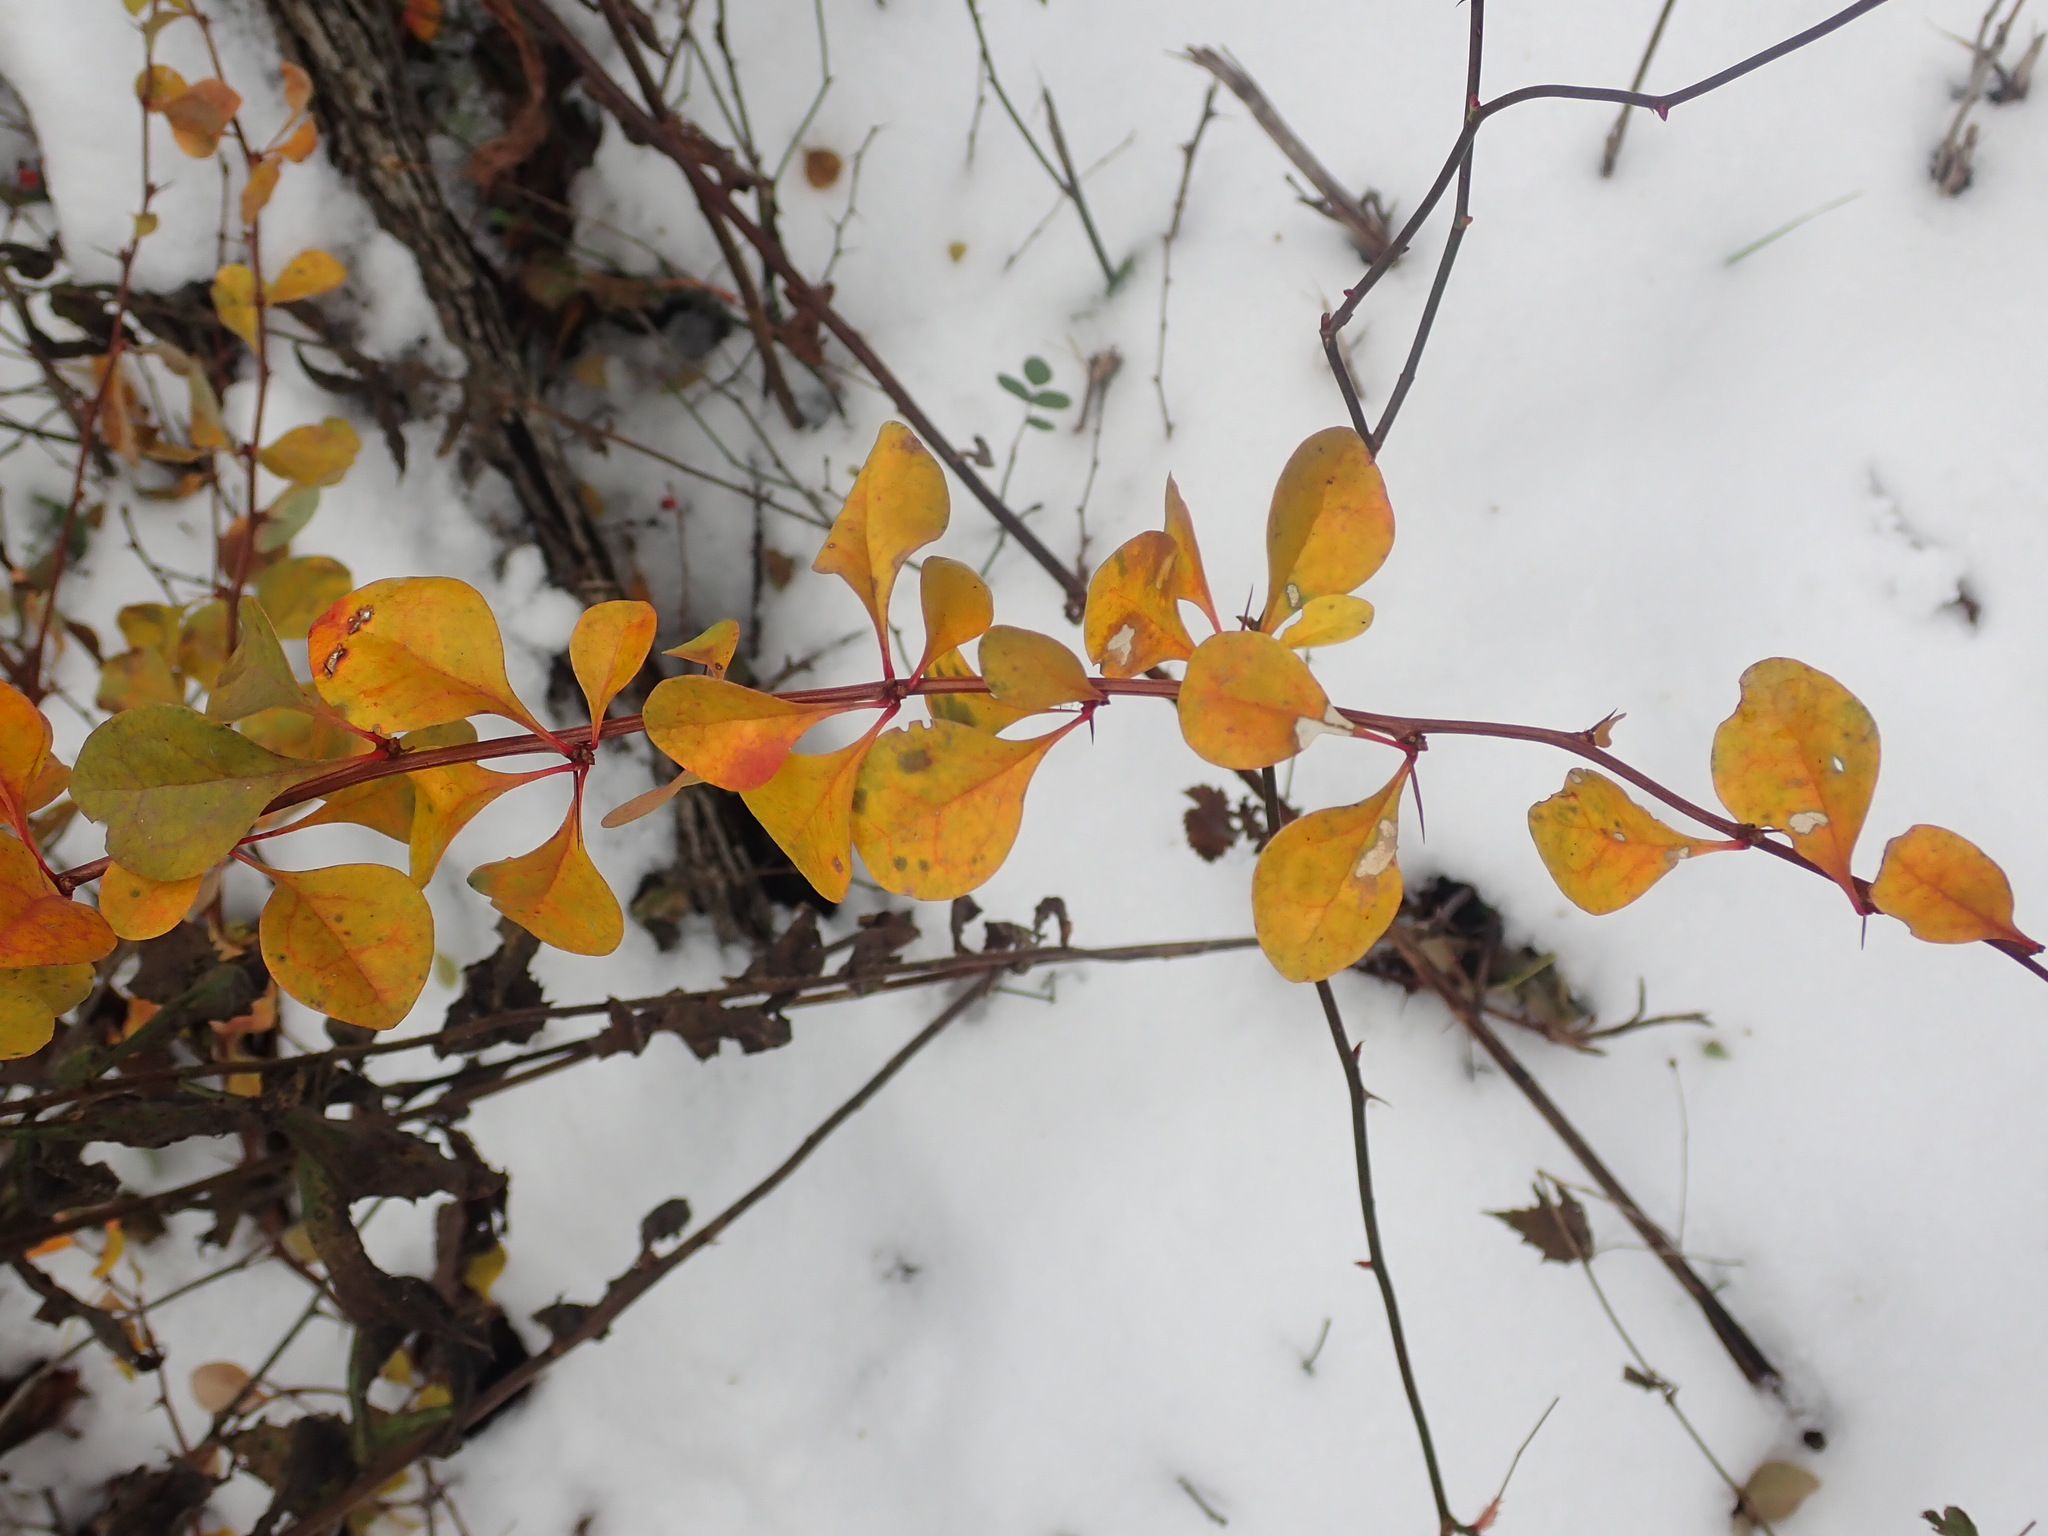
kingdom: Plantae
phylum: Tracheophyta
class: Magnoliopsida
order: Ranunculales
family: Berberidaceae
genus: Berberis
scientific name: Berberis thunbergii
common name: Japanese barberry
